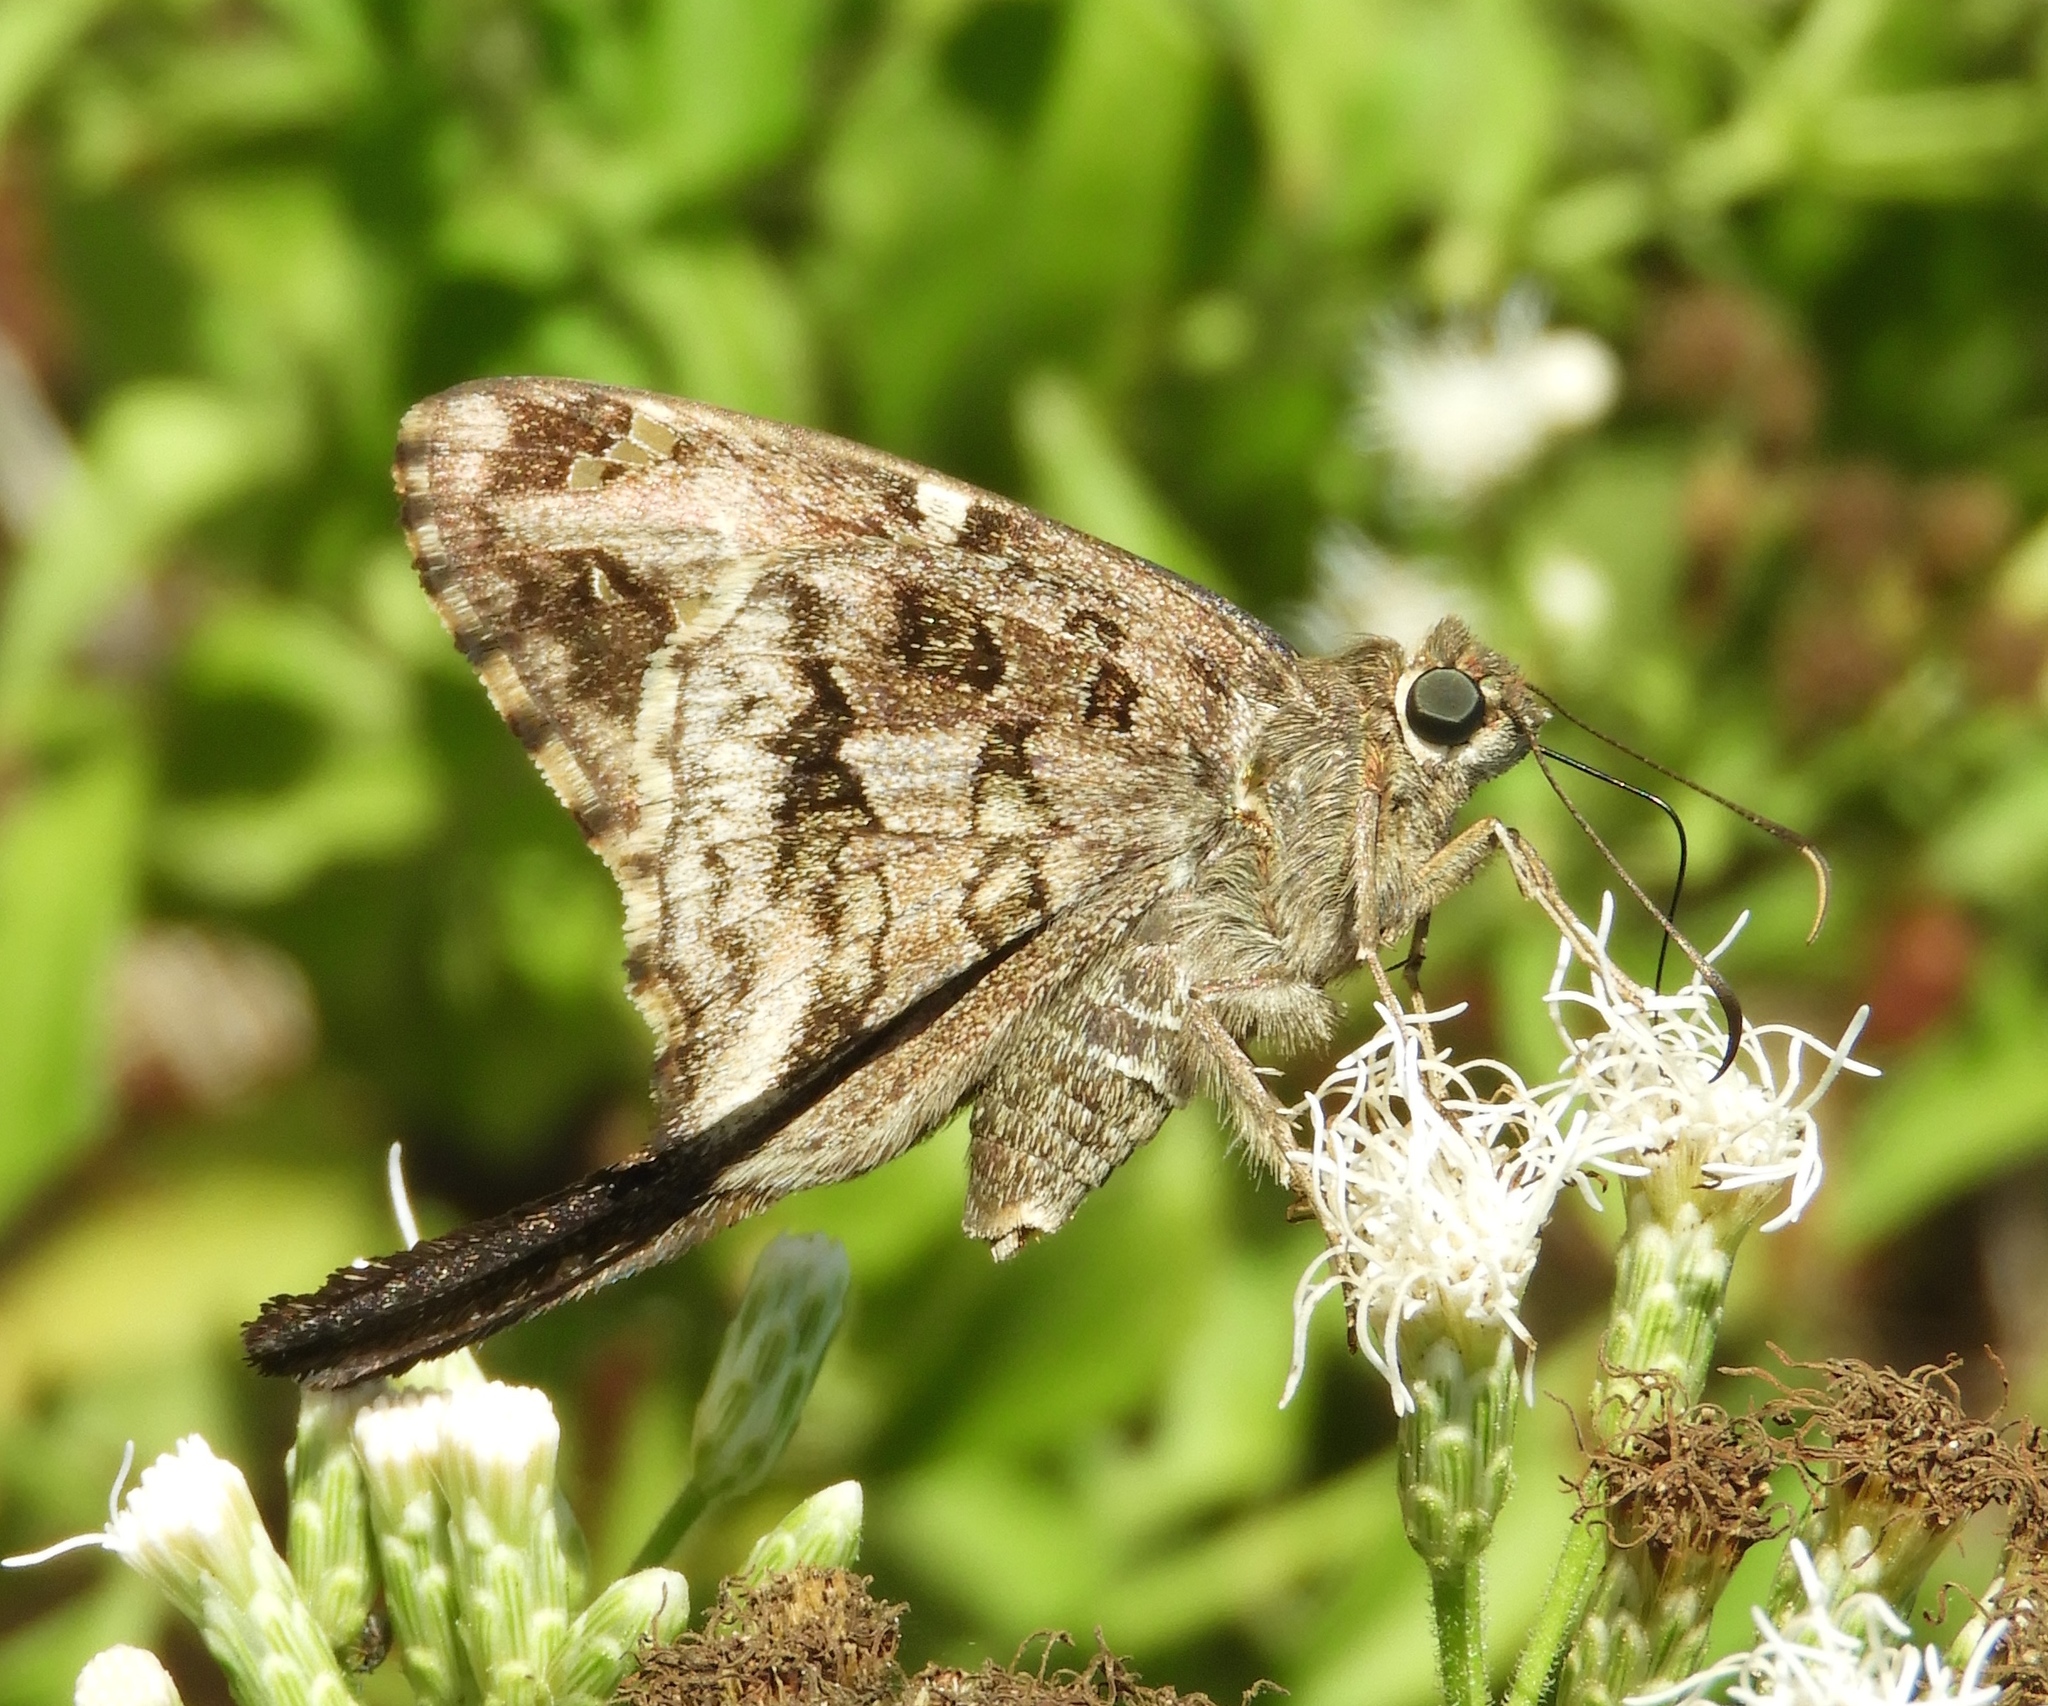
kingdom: Animalia
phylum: Arthropoda
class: Insecta
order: Lepidoptera
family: Hesperiidae
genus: Thorybes
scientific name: Thorybes
